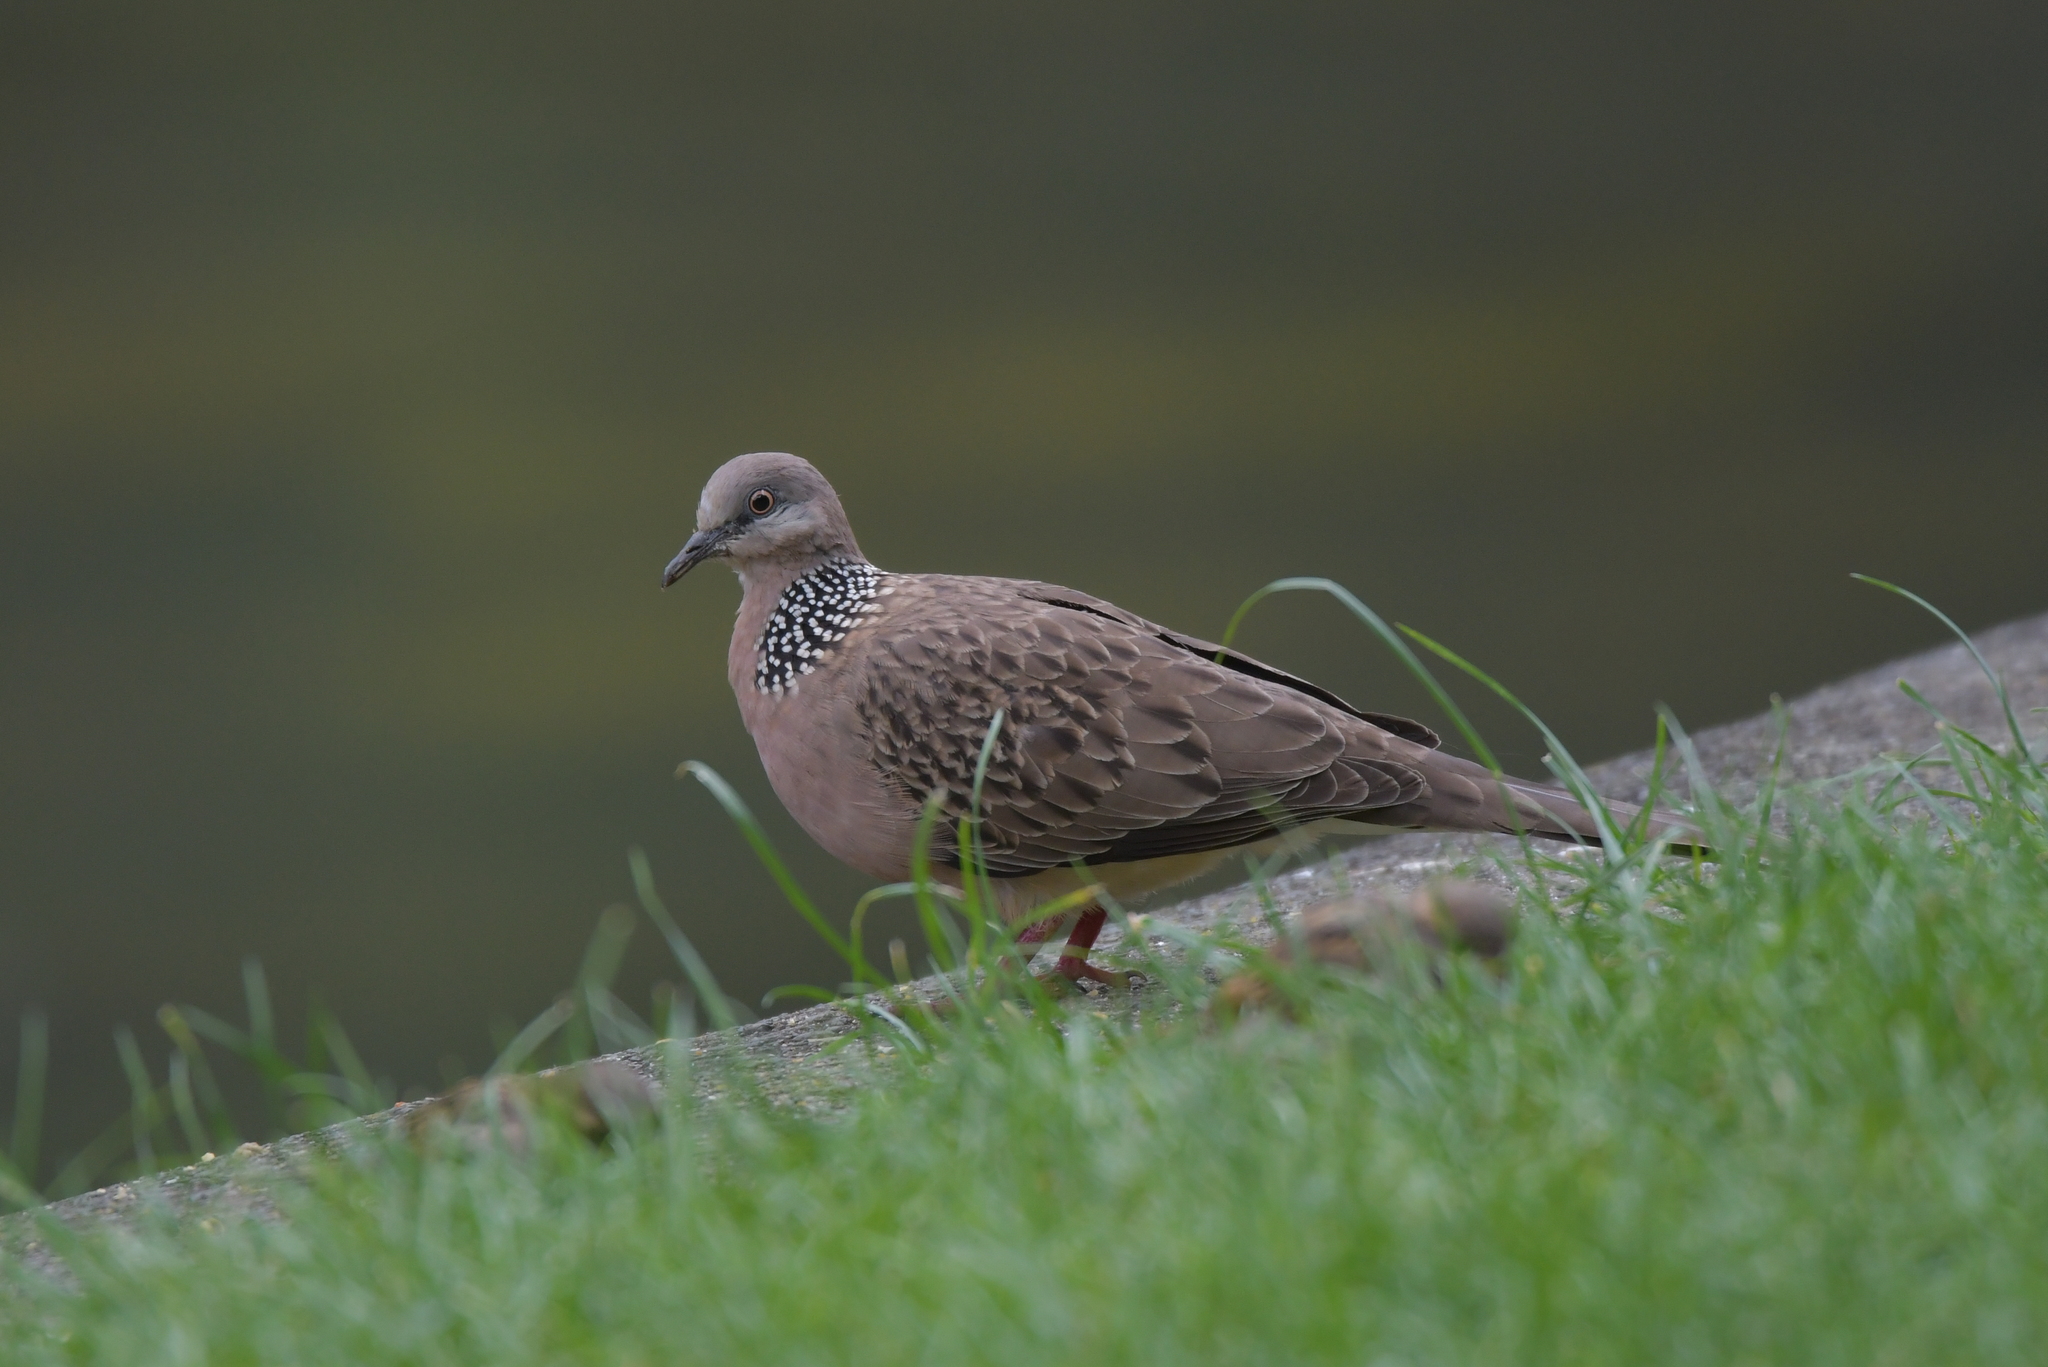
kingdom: Animalia
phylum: Chordata
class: Aves
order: Columbiformes
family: Columbidae
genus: Spilopelia
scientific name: Spilopelia chinensis
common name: Spotted dove
